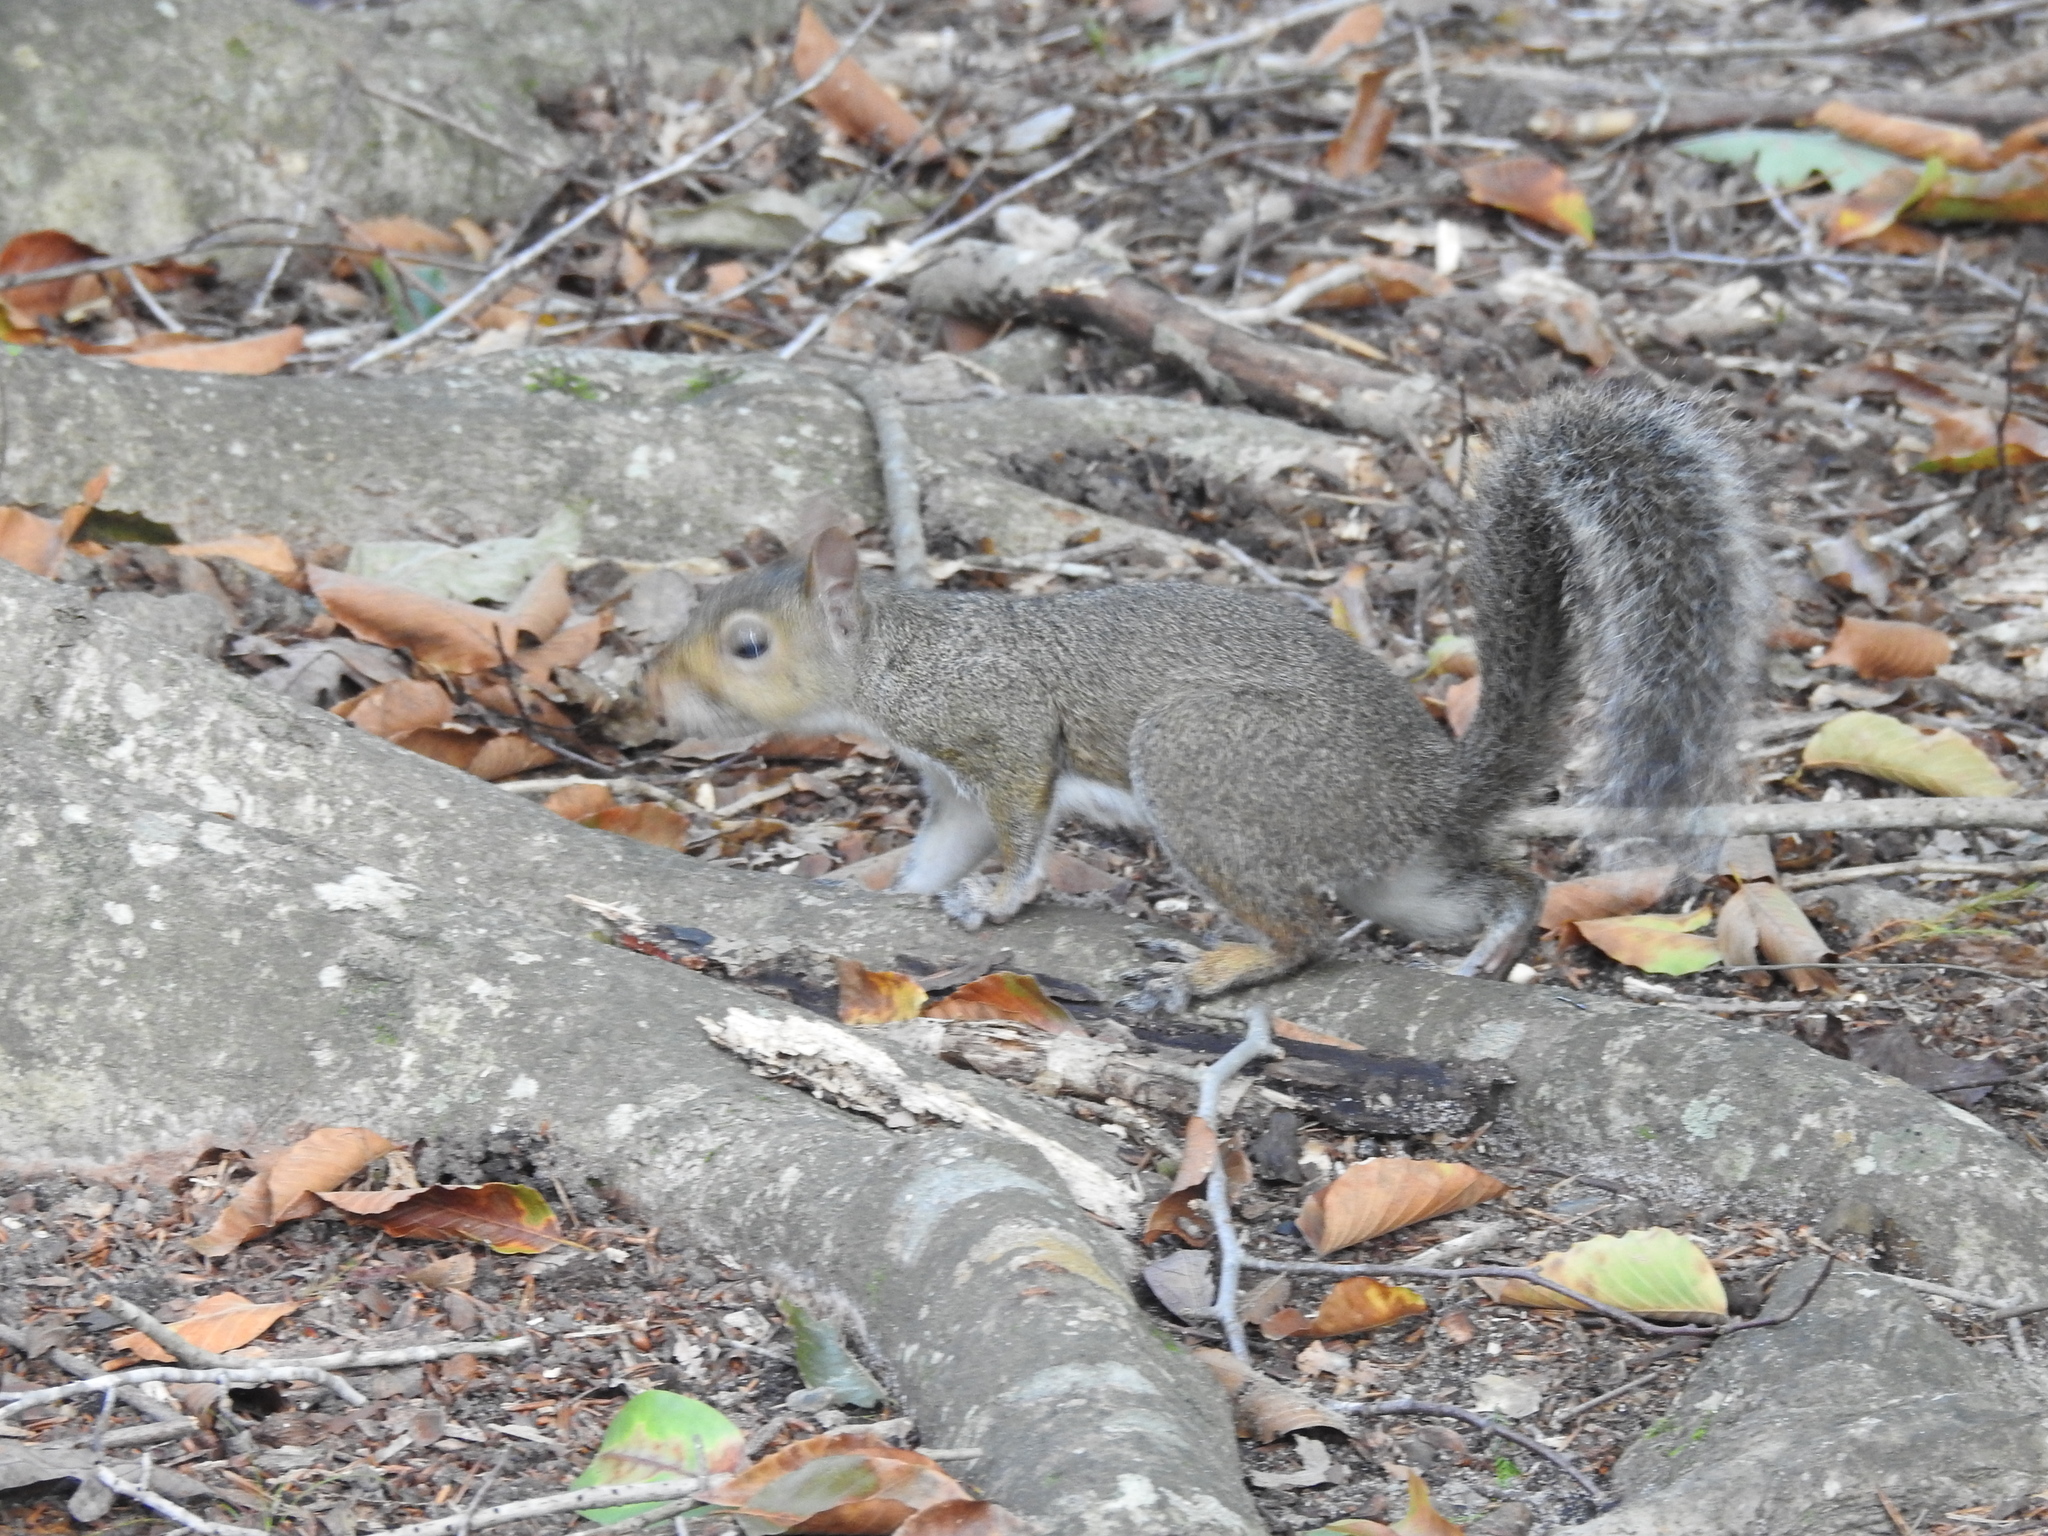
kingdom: Animalia
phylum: Chordata
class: Mammalia
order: Rodentia
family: Sciuridae
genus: Sciurus
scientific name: Sciurus carolinensis
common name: Eastern gray squirrel
